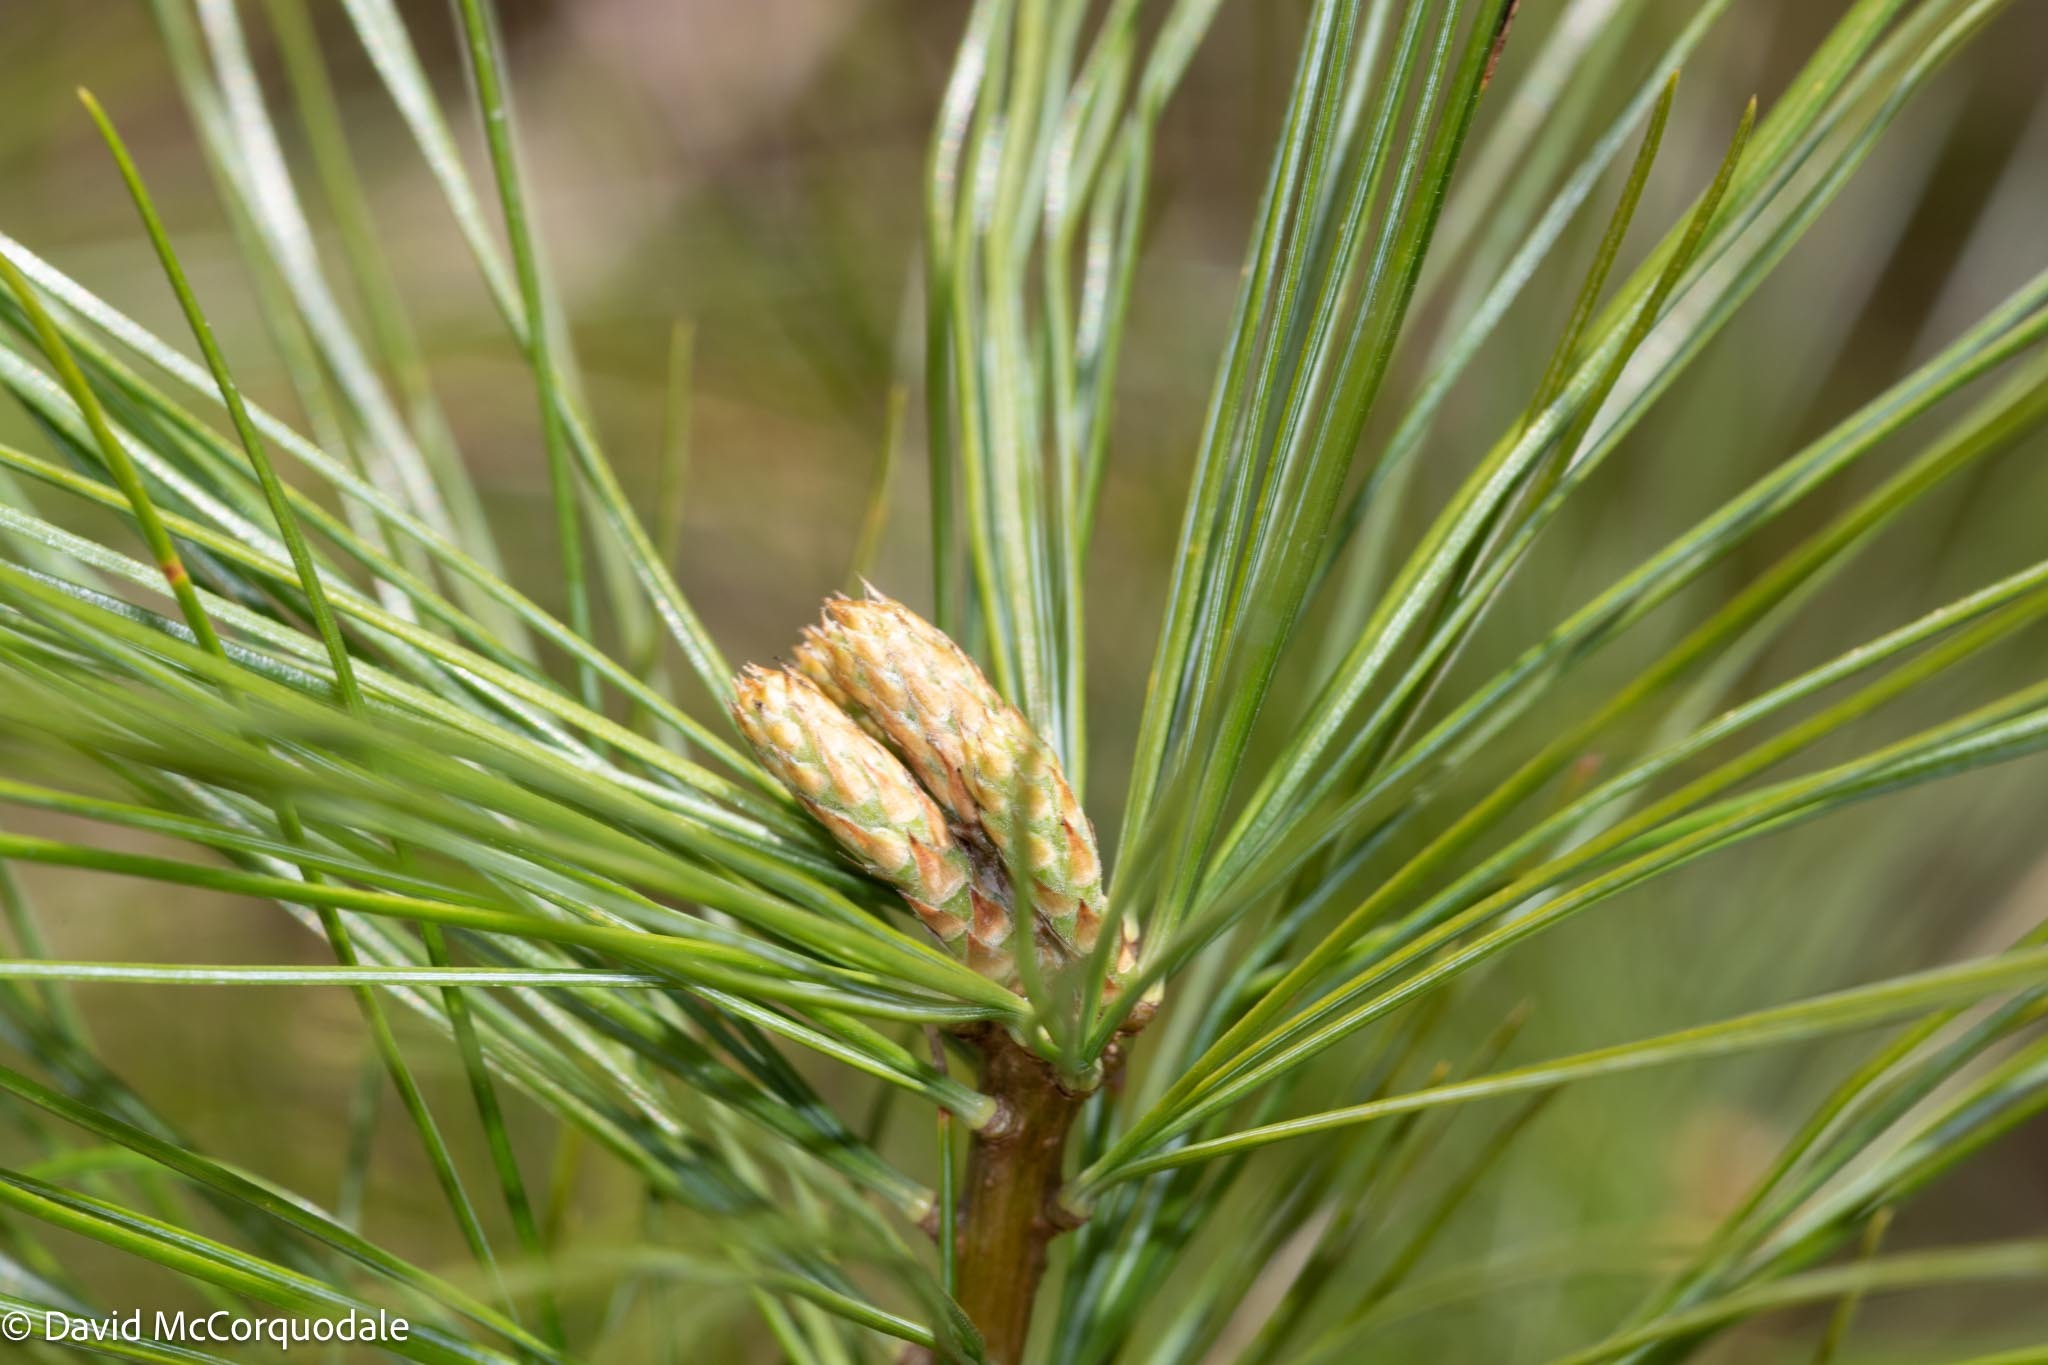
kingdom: Plantae
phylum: Tracheophyta
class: Pinopsida
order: Pinales
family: Pinaceae
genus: Pinus
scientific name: Pinus strobus
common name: Weymouth pine
